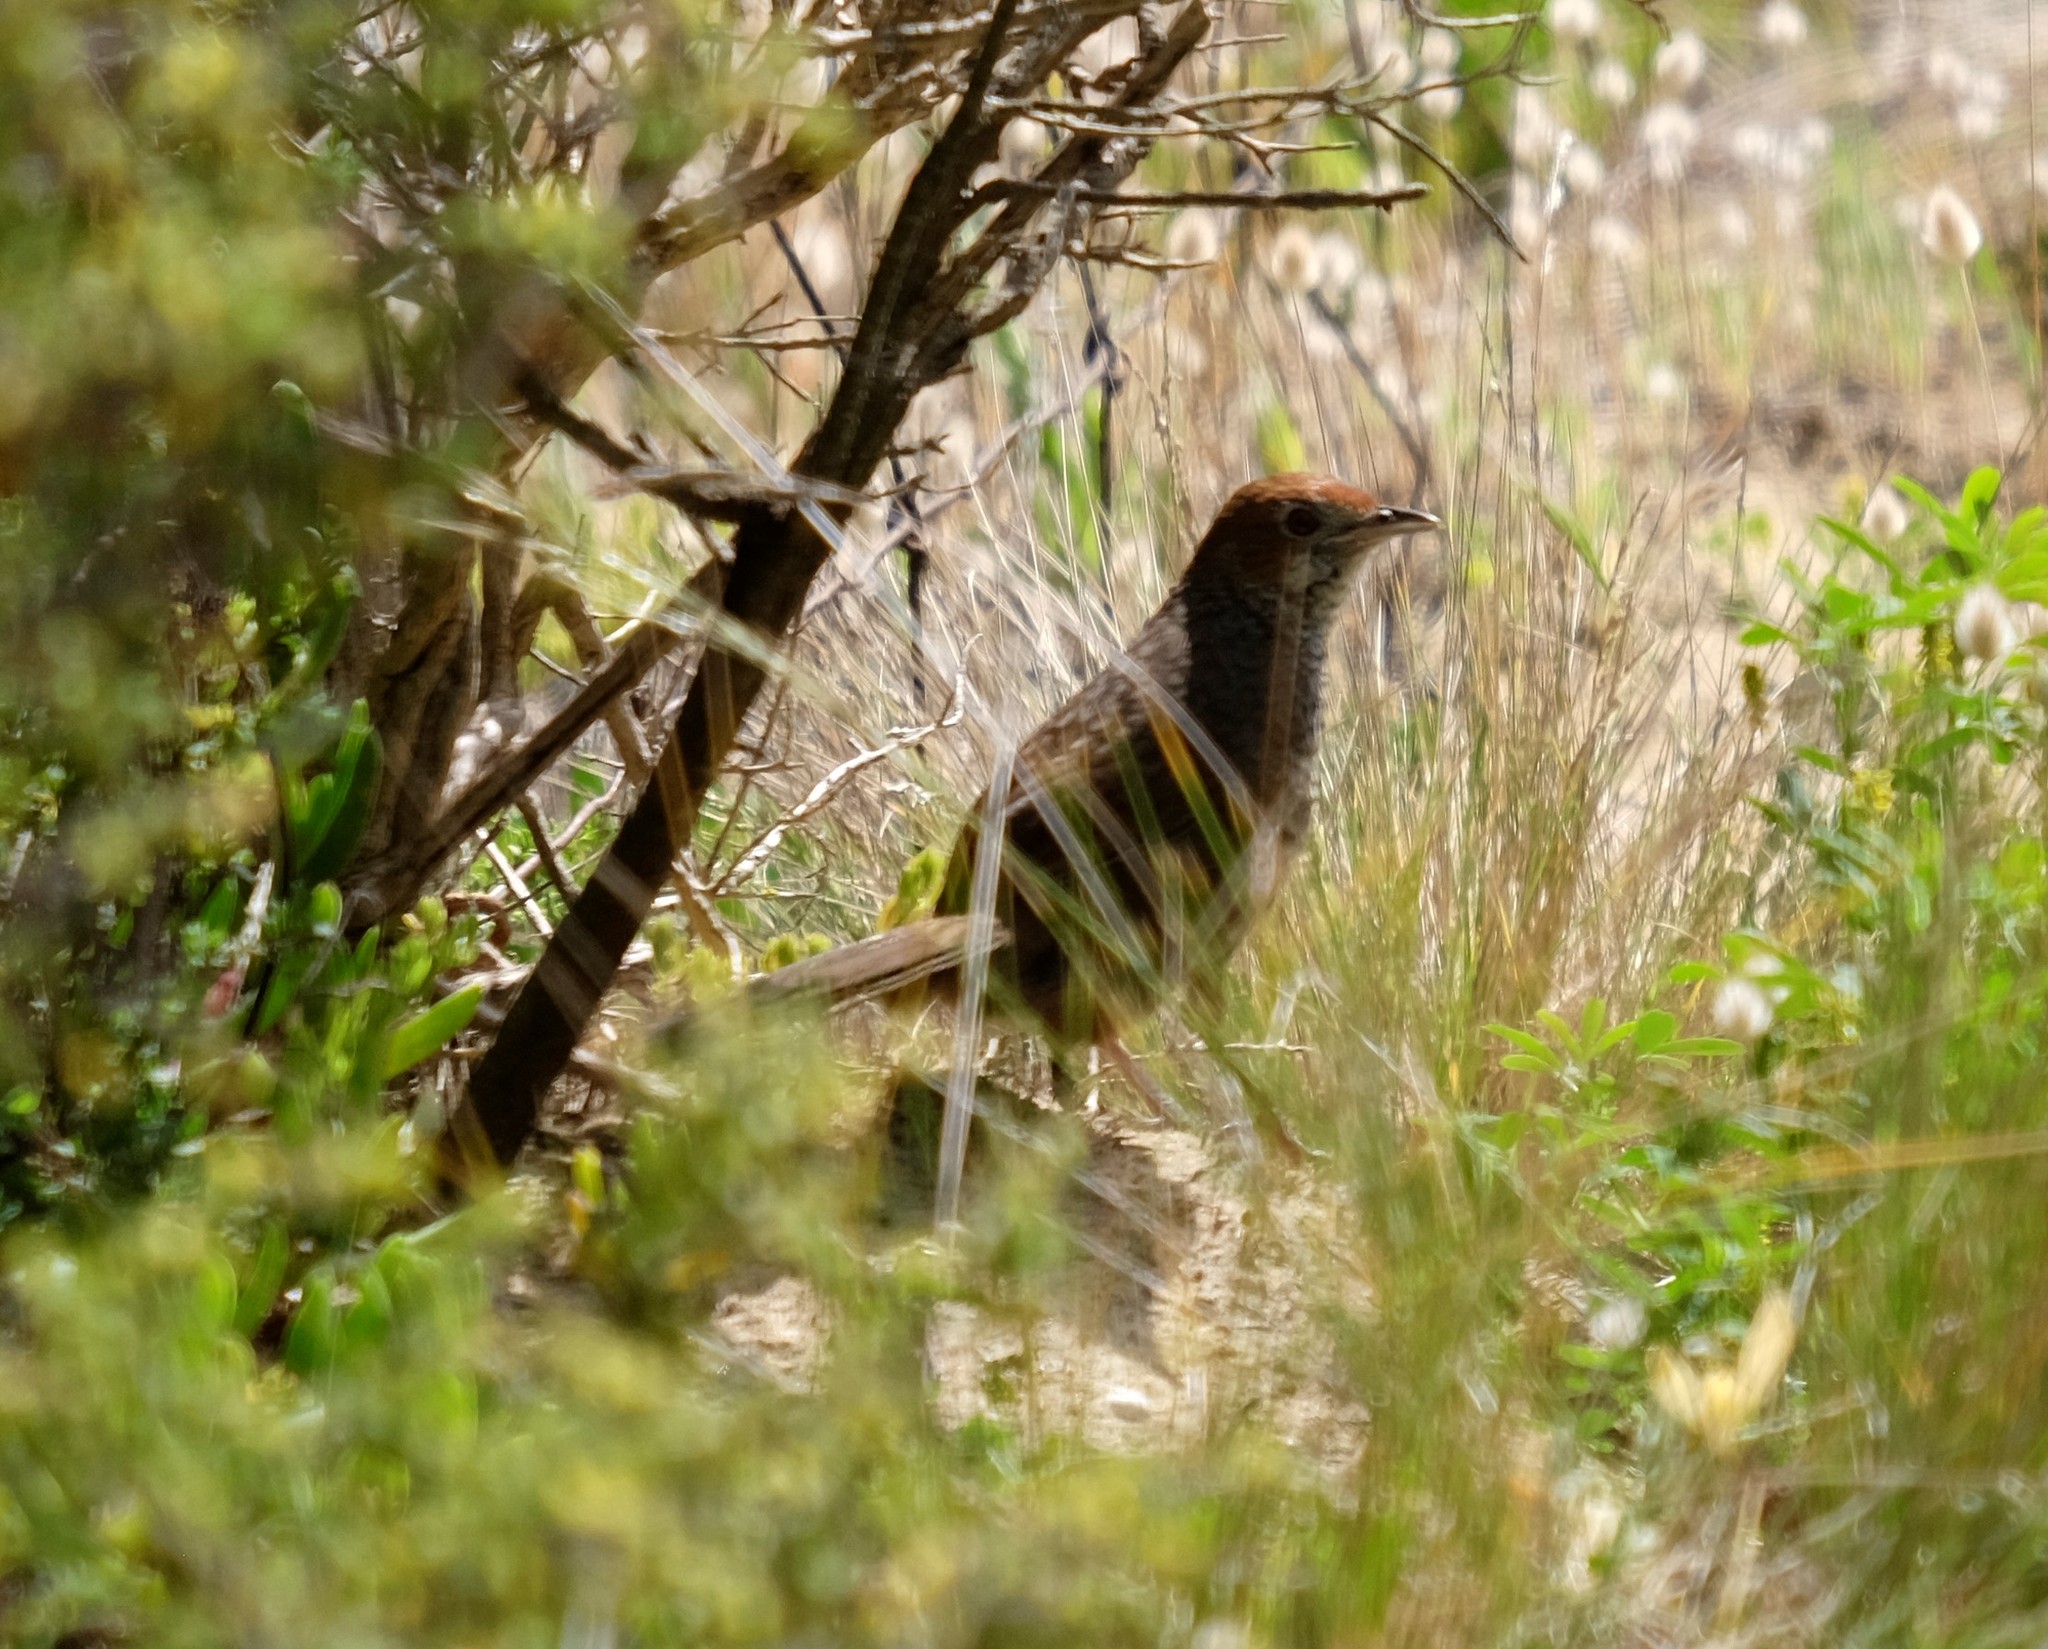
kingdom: Animalia
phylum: Chordata
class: Aves
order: Passeriformes
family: Dasyornithidae
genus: Dasyornis
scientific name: Dasyornis broadbenti
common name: Rufous bristlebird
